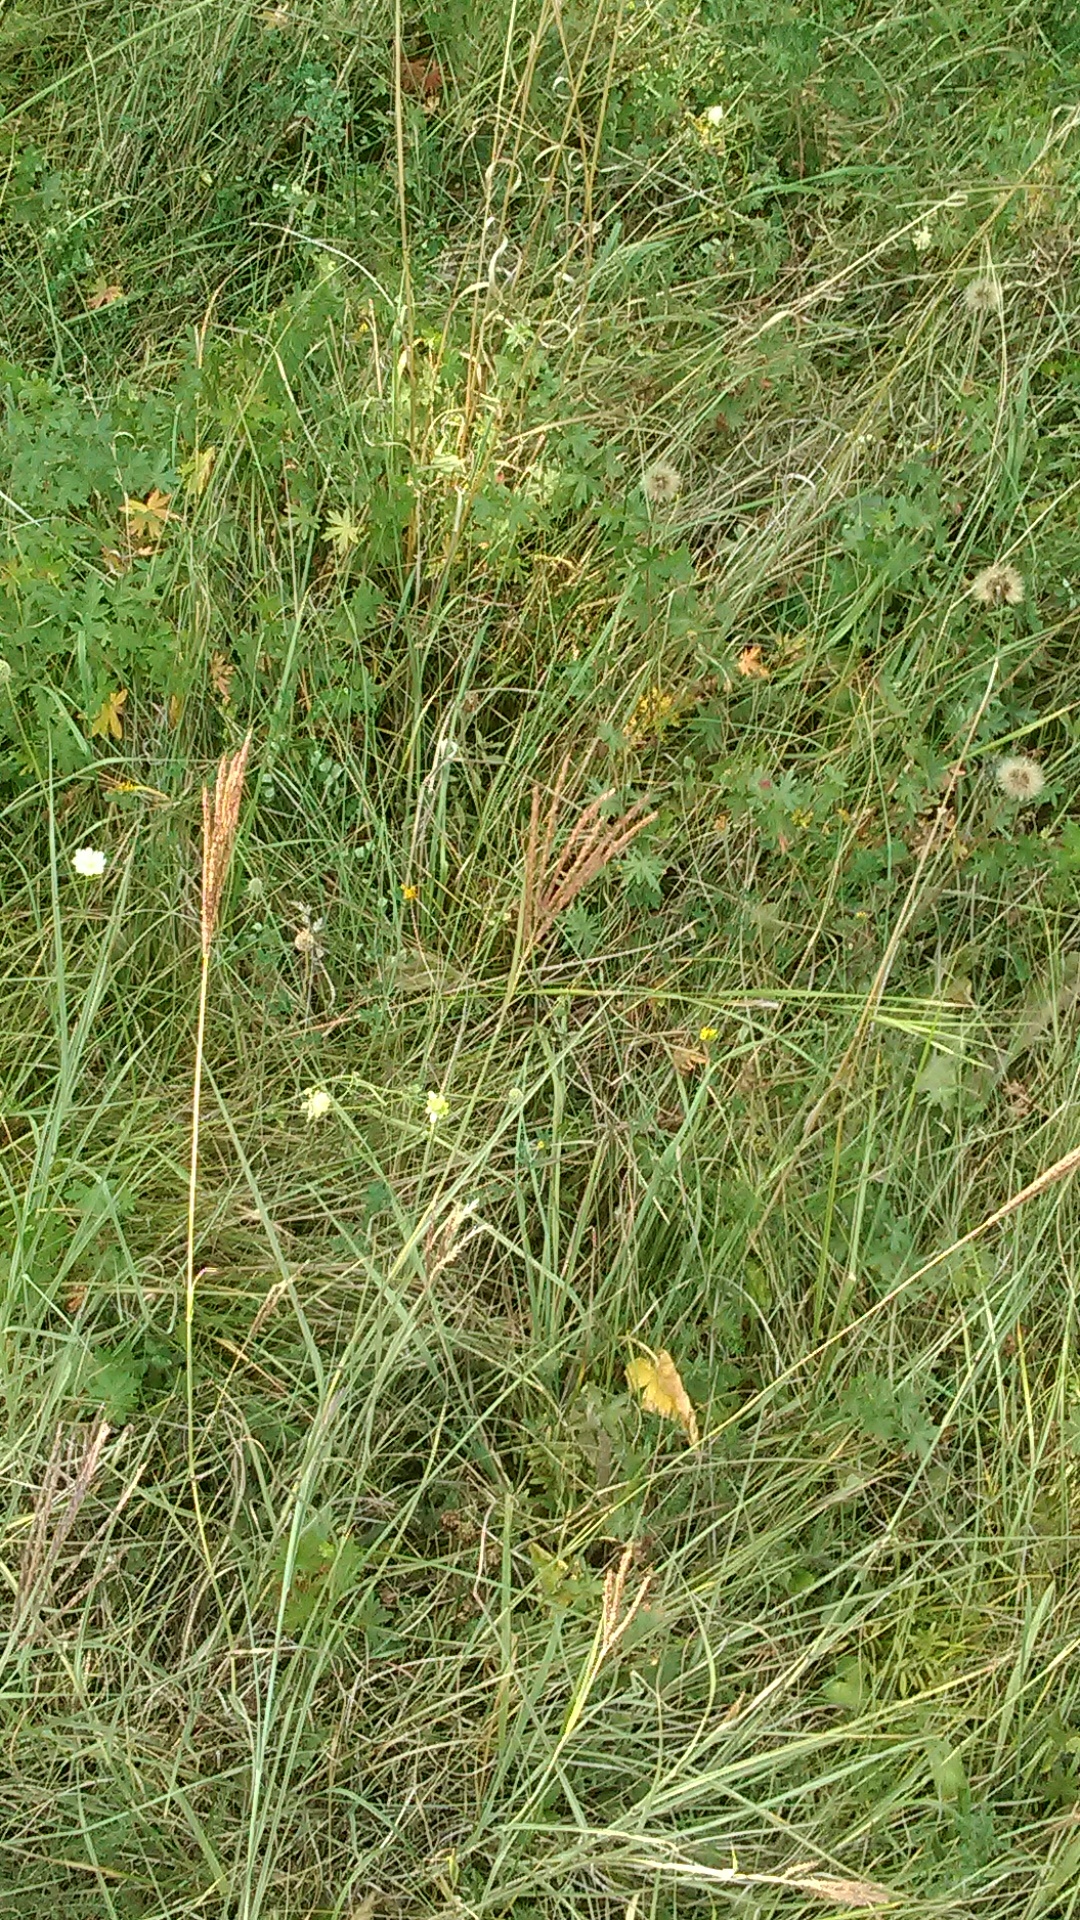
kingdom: Plantae
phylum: Tracheophyta
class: Liliopsida
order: Poales
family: Poaceae
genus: Bothriochloa
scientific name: Bothriochloa ischaemum
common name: Yellow bluestem
